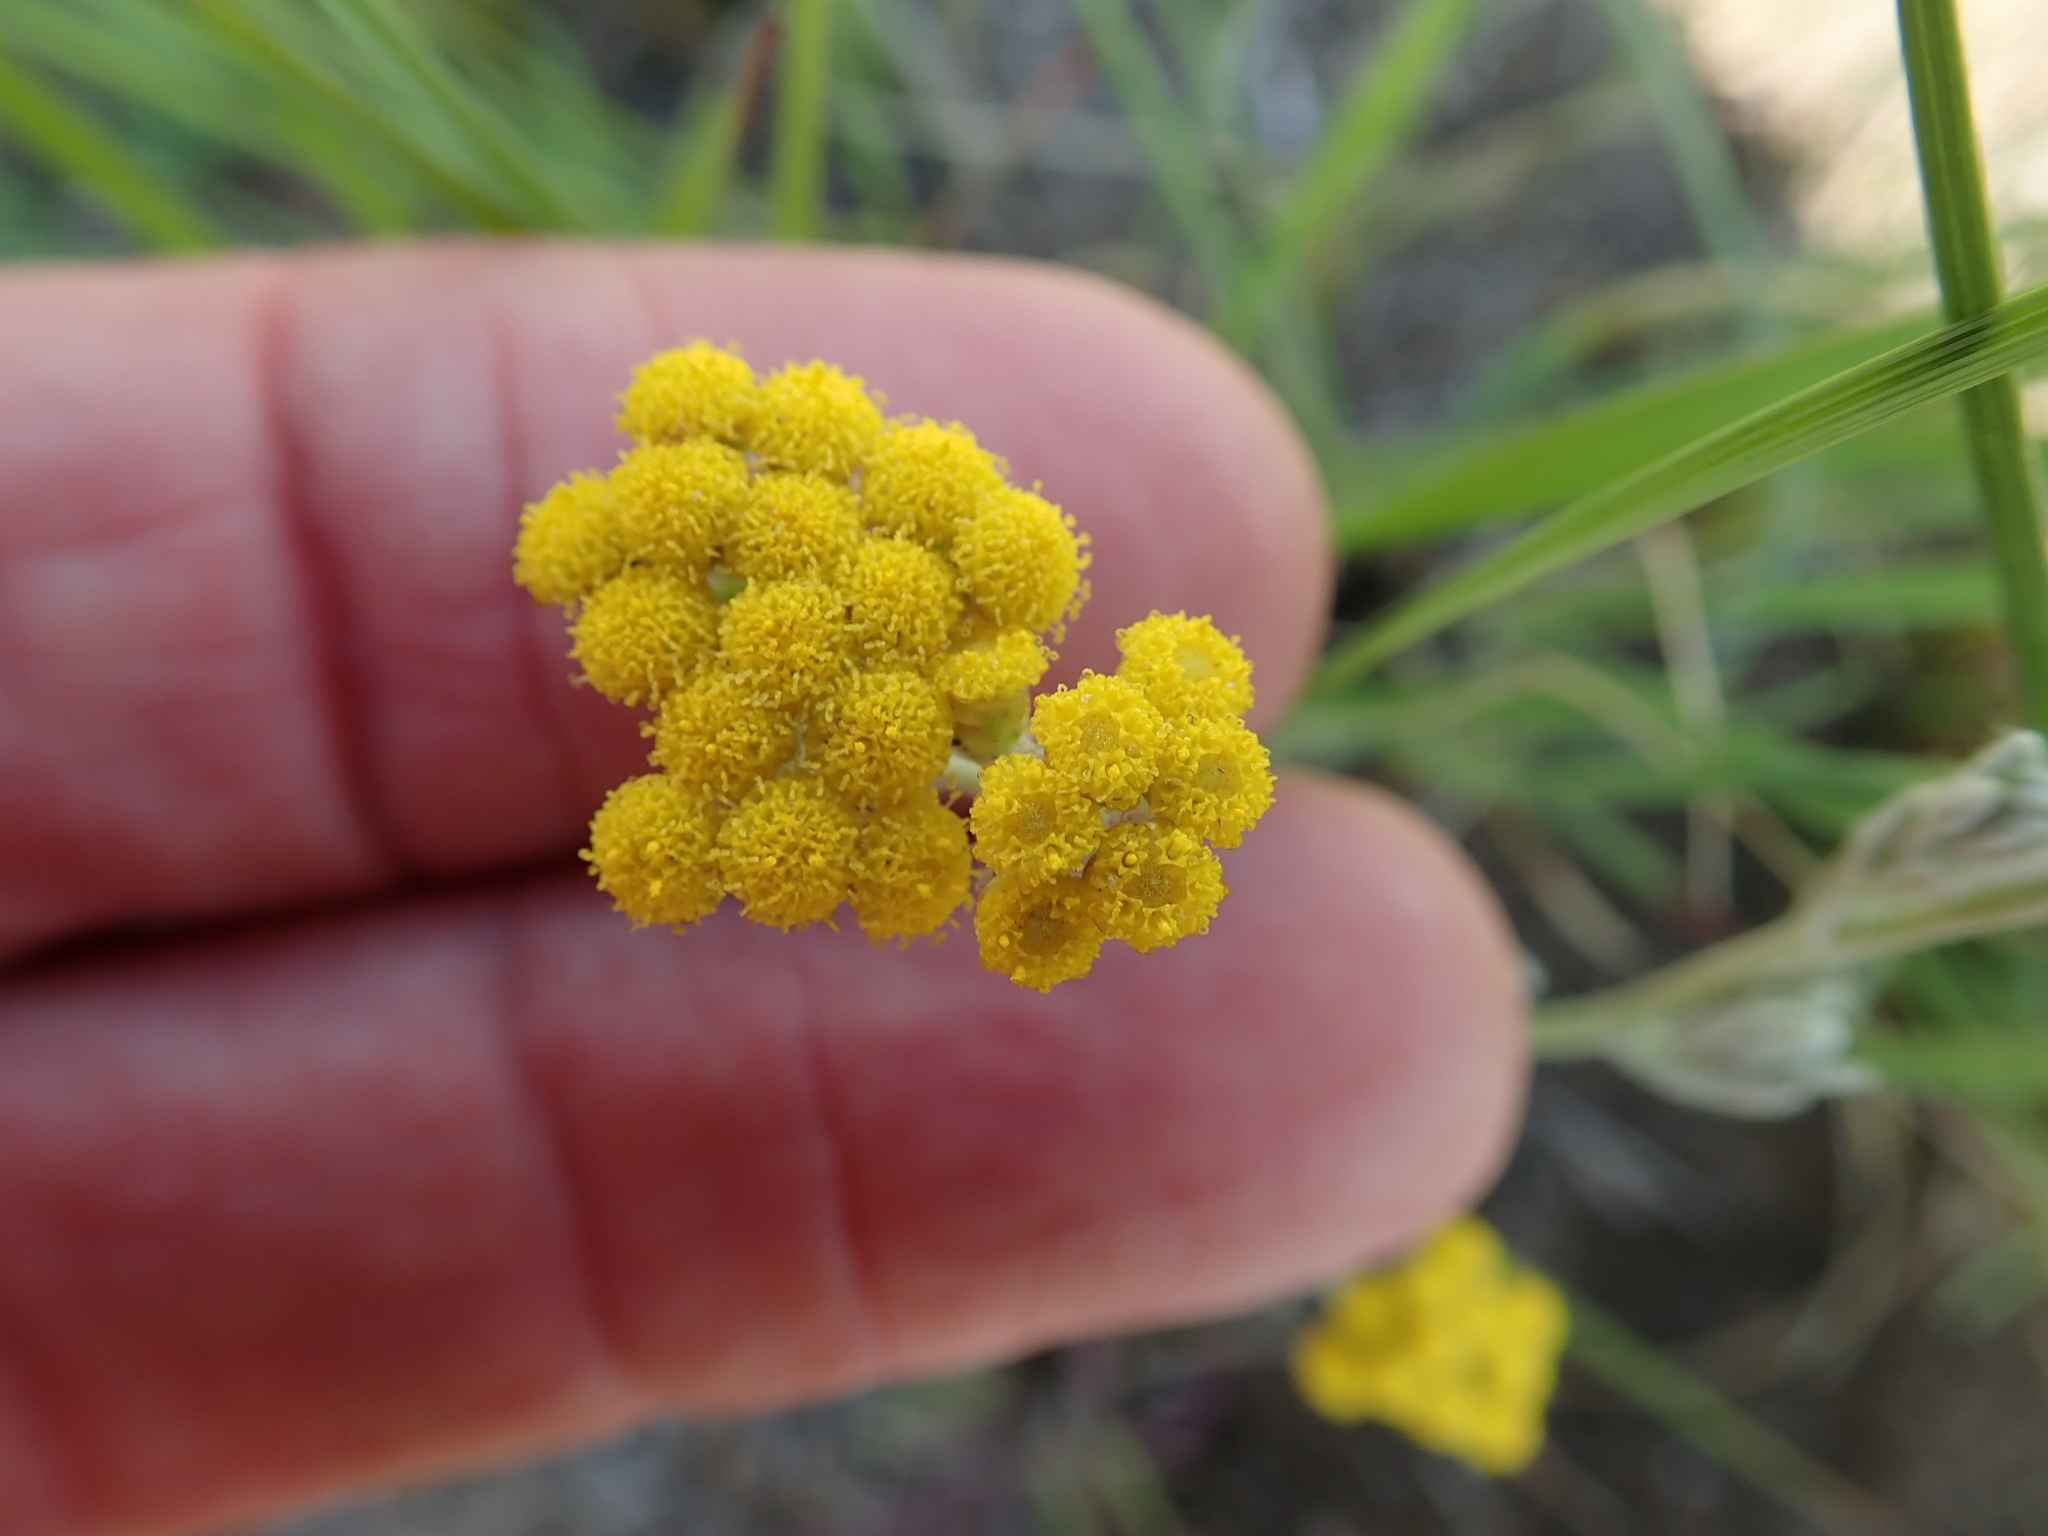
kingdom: Plantae
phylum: Tracheophyta
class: Magnoliopsida
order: Asterales
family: Asteraceae
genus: Helichrysum
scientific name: Helichrysum aureonitens
